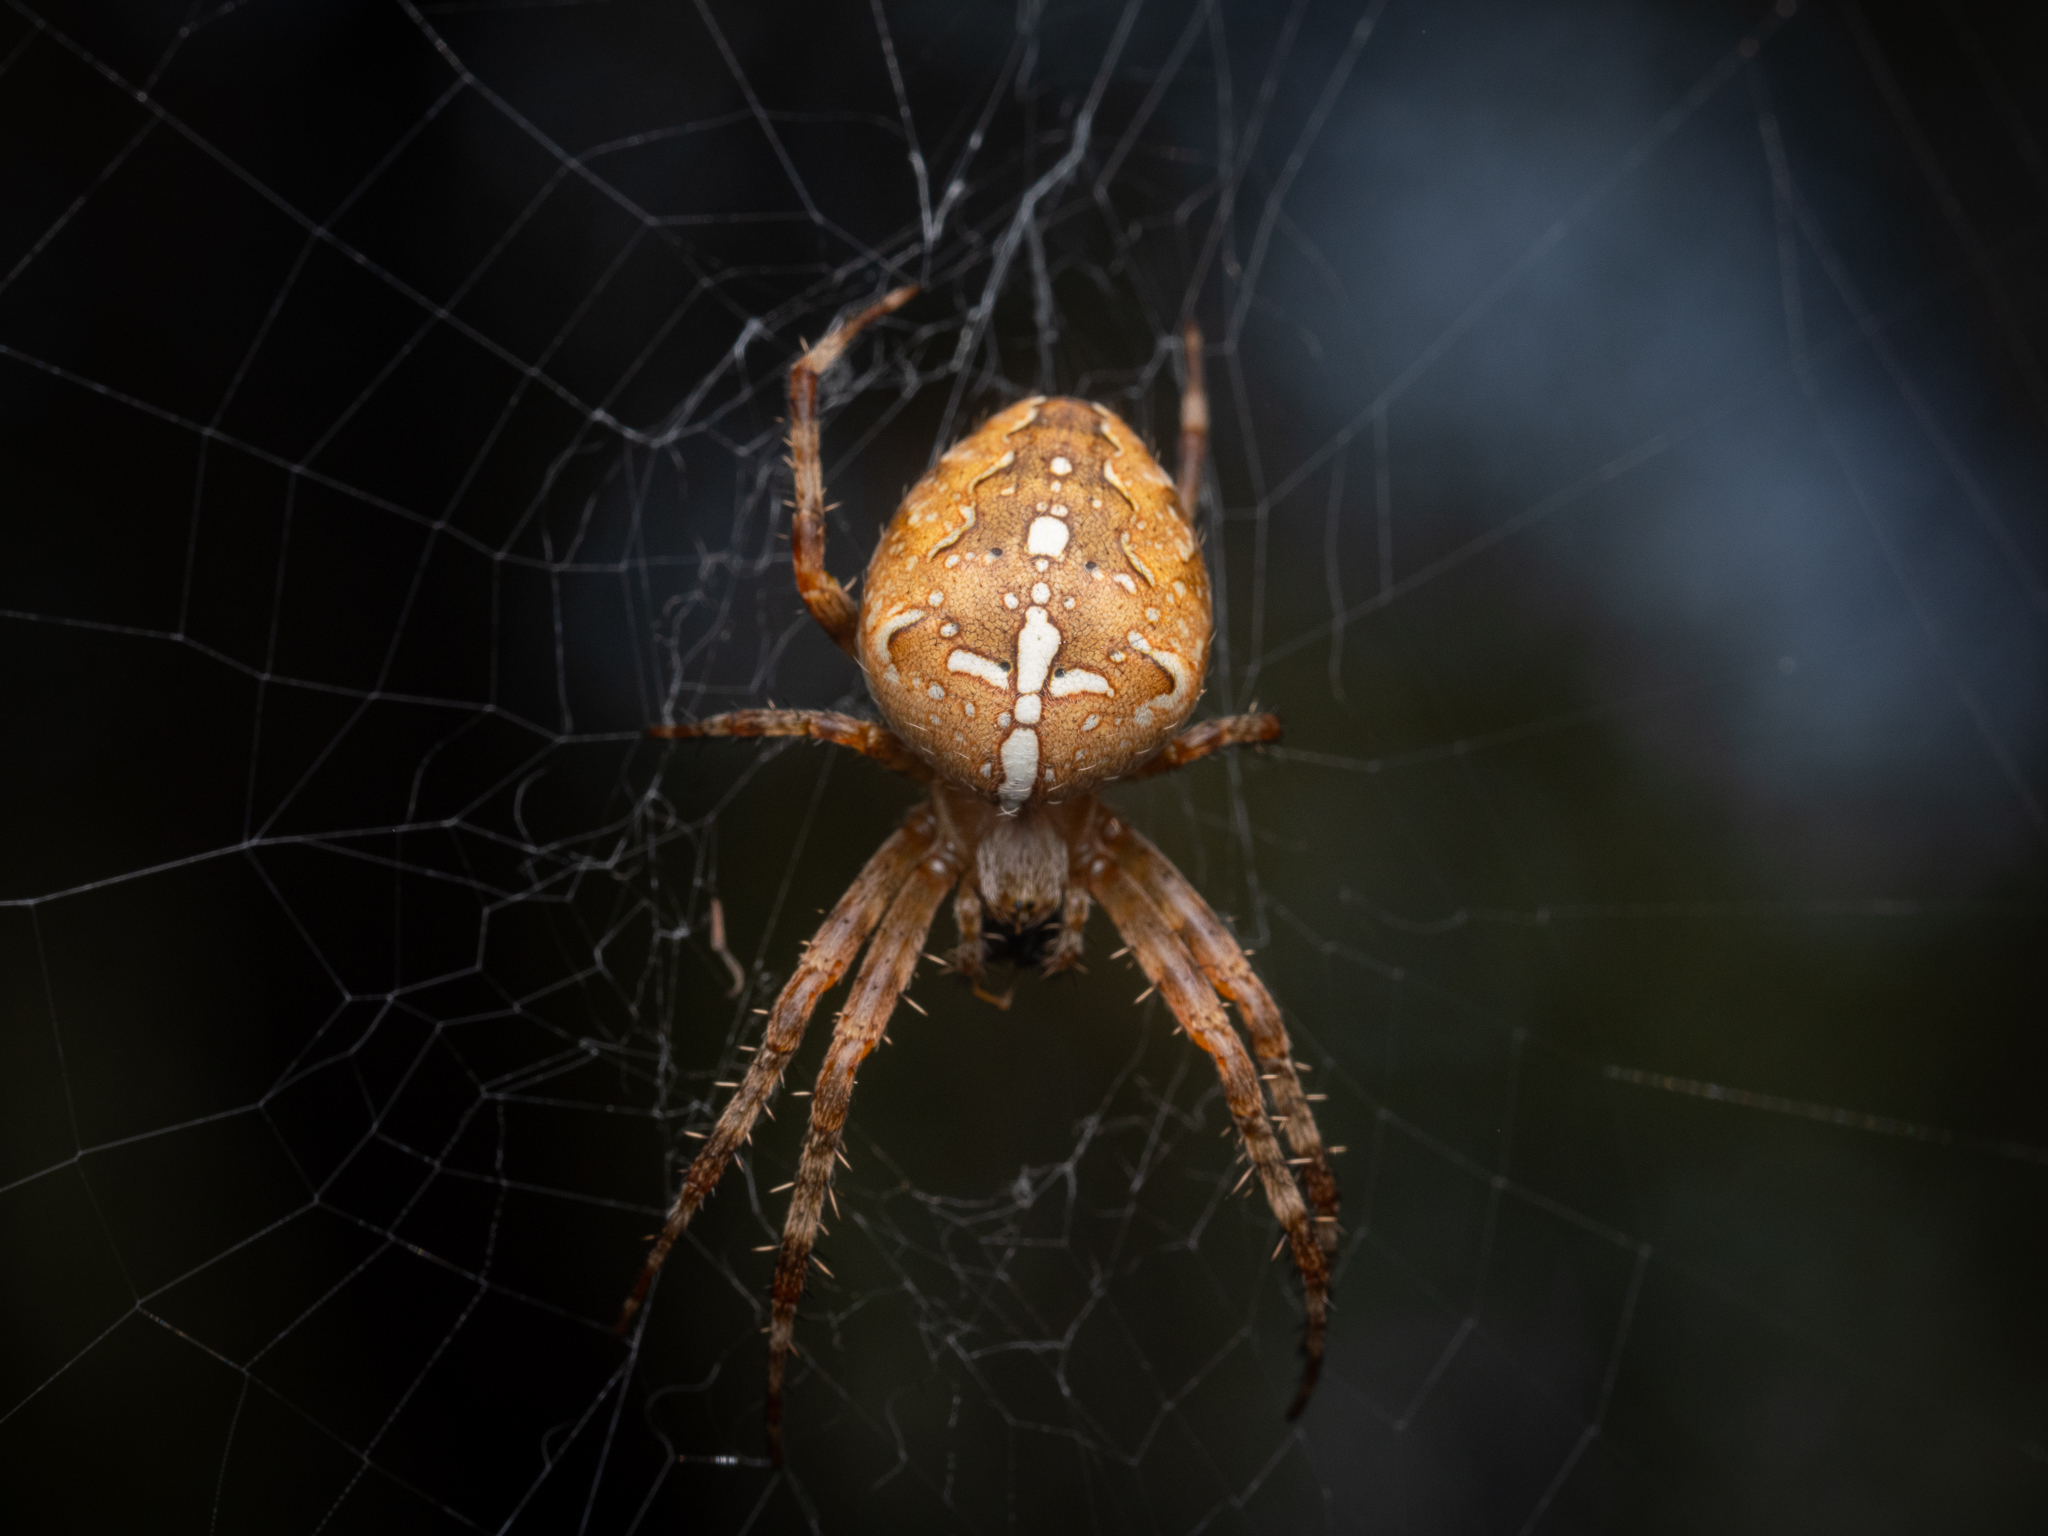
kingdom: Animalia
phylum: Arthropoda
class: Arachnida
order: Araneae
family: Araneidae
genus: Araneus
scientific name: Araneus diadematus
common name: Cross orbweaver
